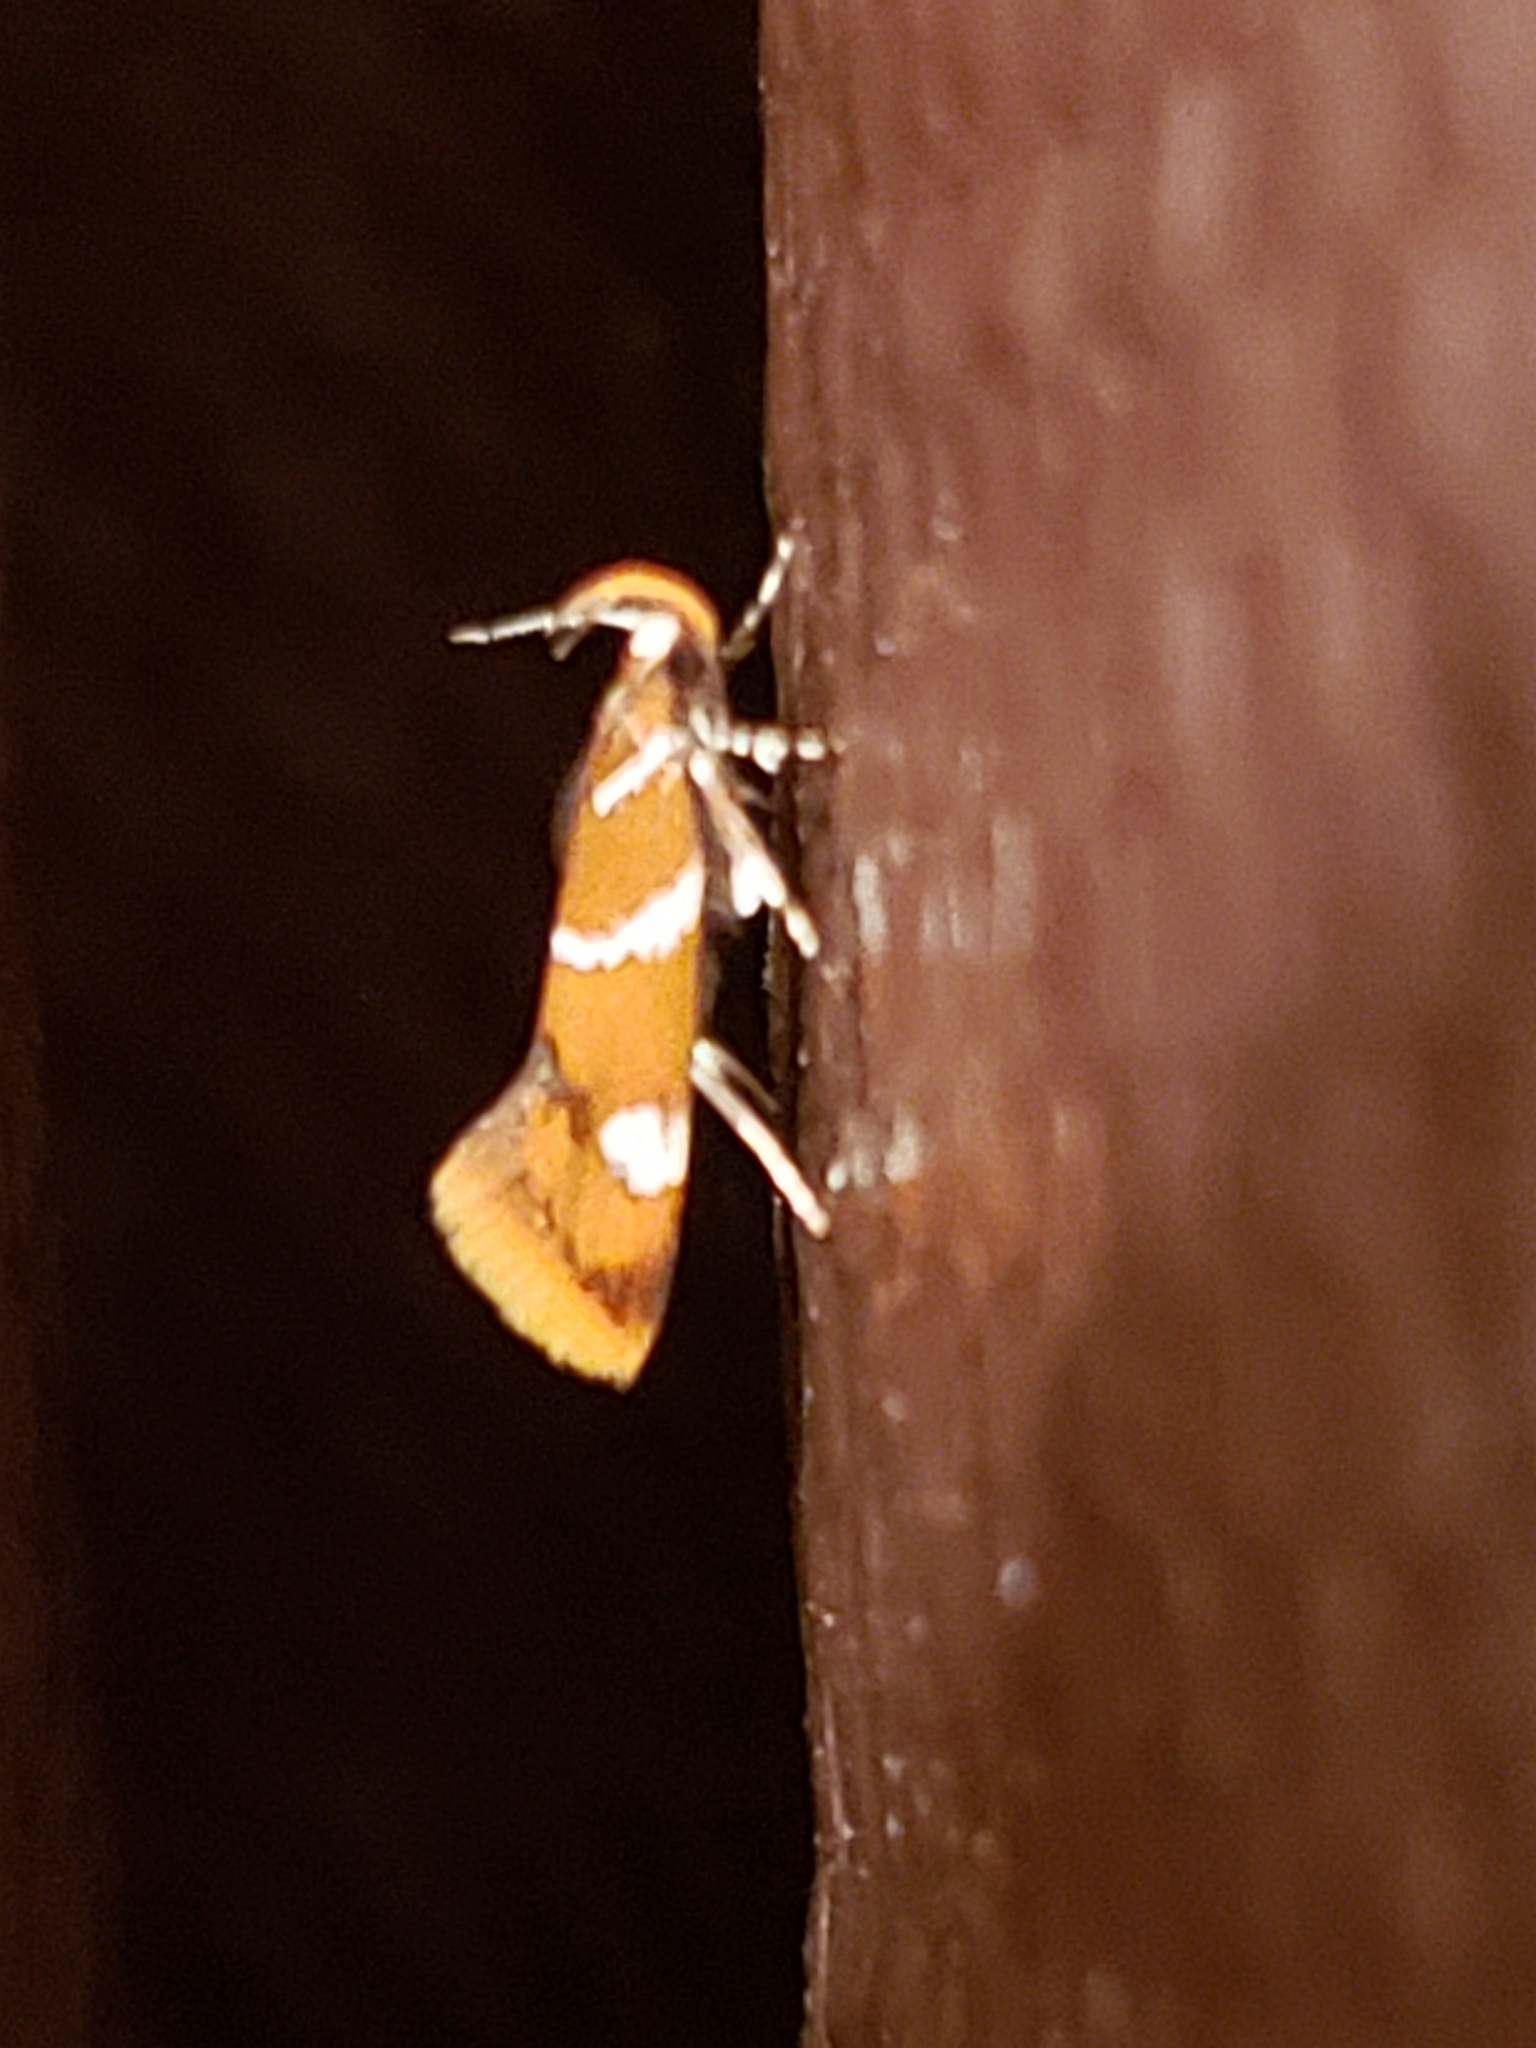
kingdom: Animalia
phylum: Arthropoda
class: Insecta
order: Lepidoptera
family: Oecophoridae
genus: Promalactis
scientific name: Promalactis suzukiella
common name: Moth
